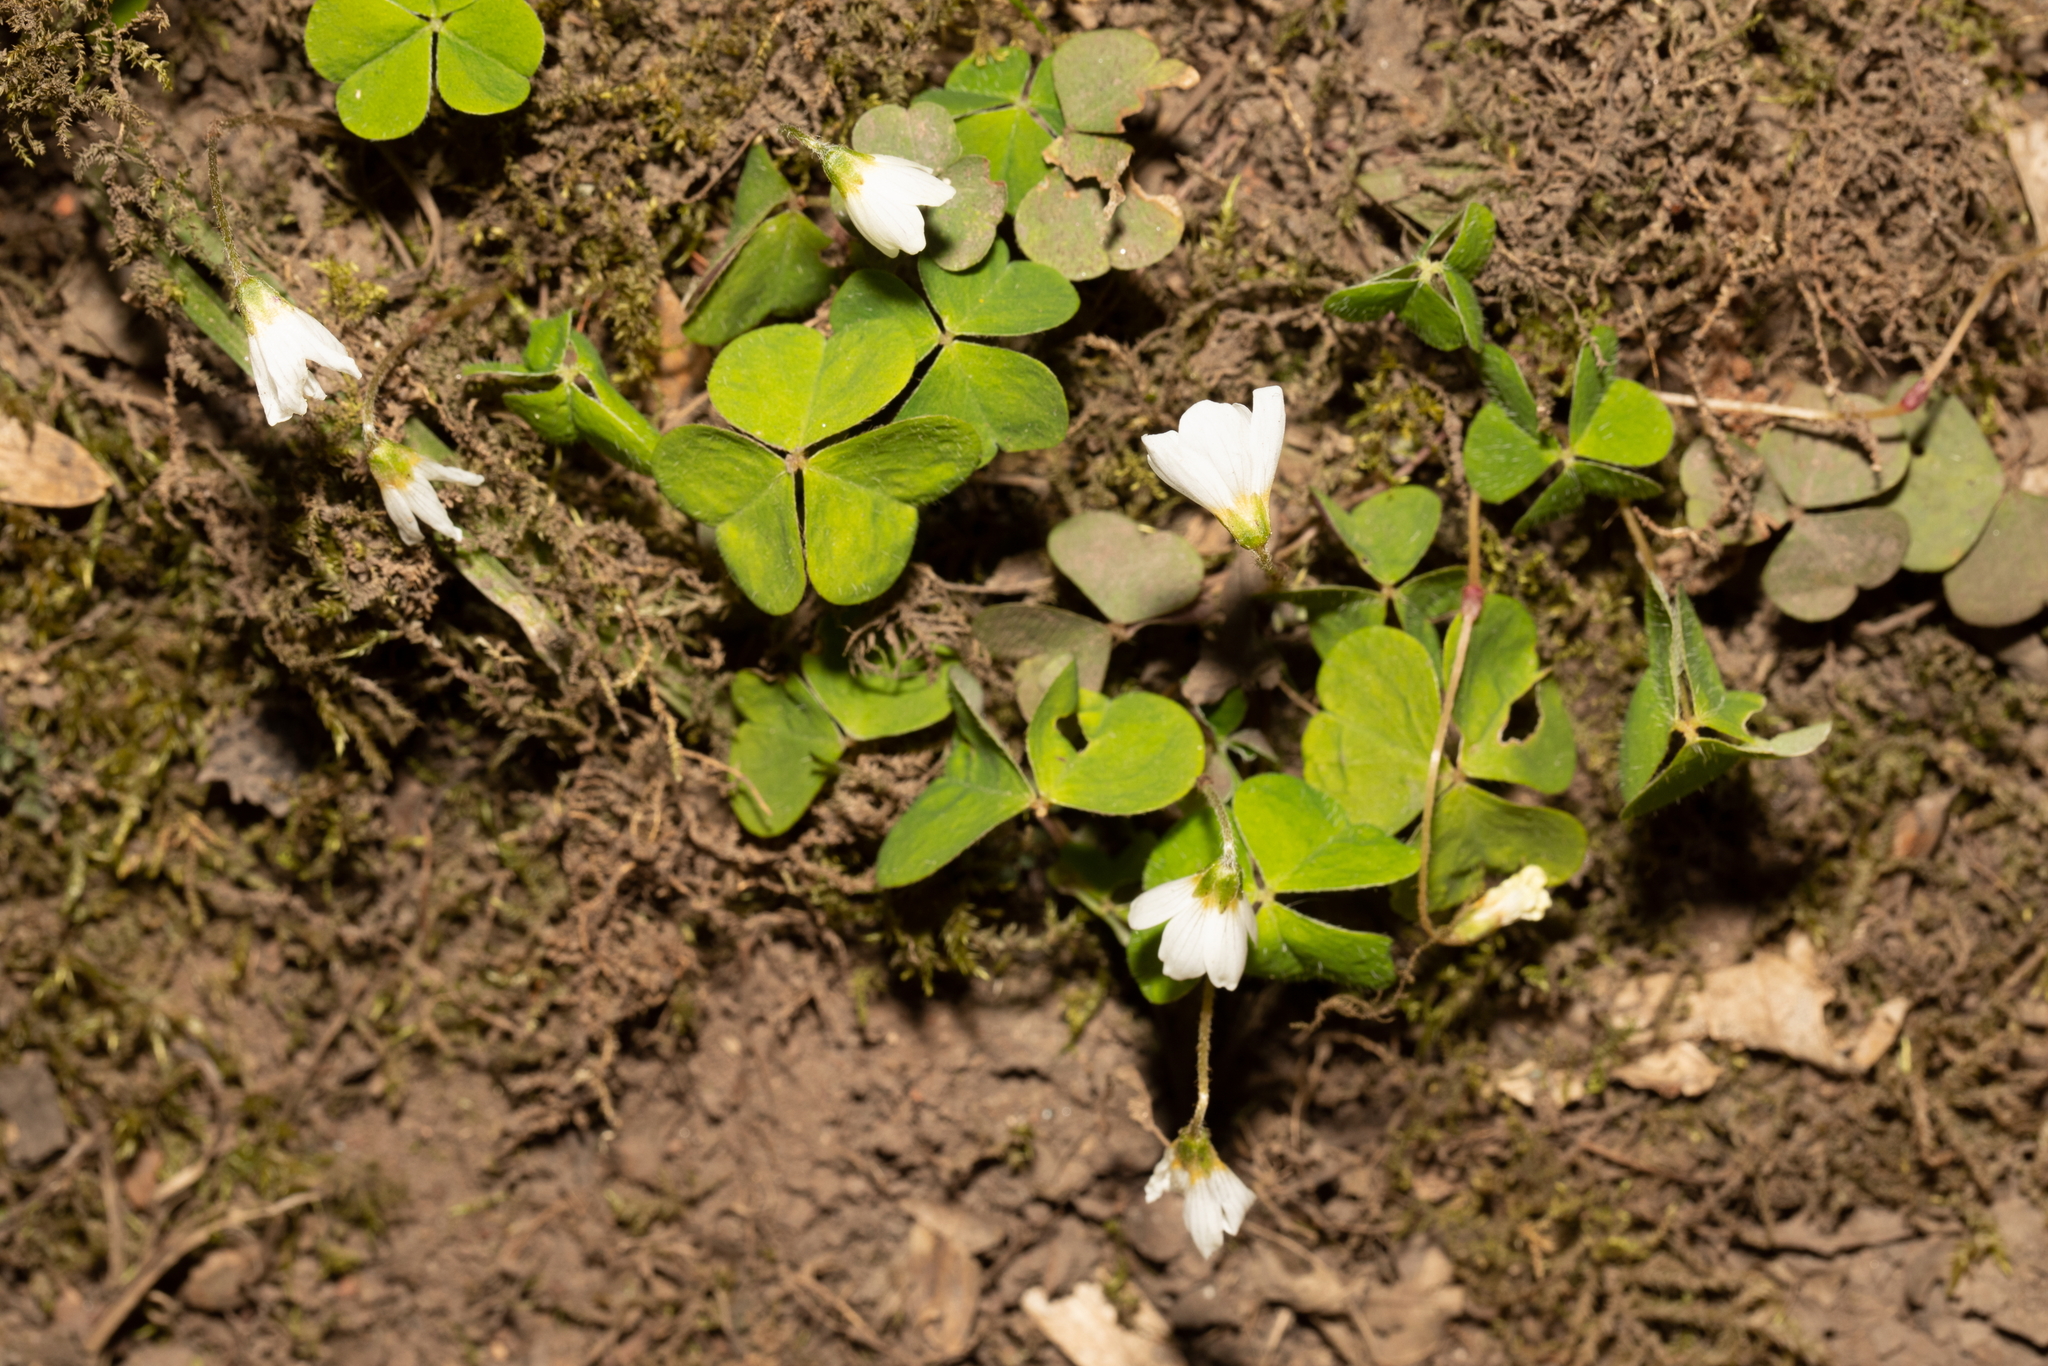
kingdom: Plantae
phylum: Tracheophyta
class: Magnoliopsida
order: Oxalidales
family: Oxalidaceae
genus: Oxalis
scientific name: Oxalis acetosella
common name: Wood-sorrel
